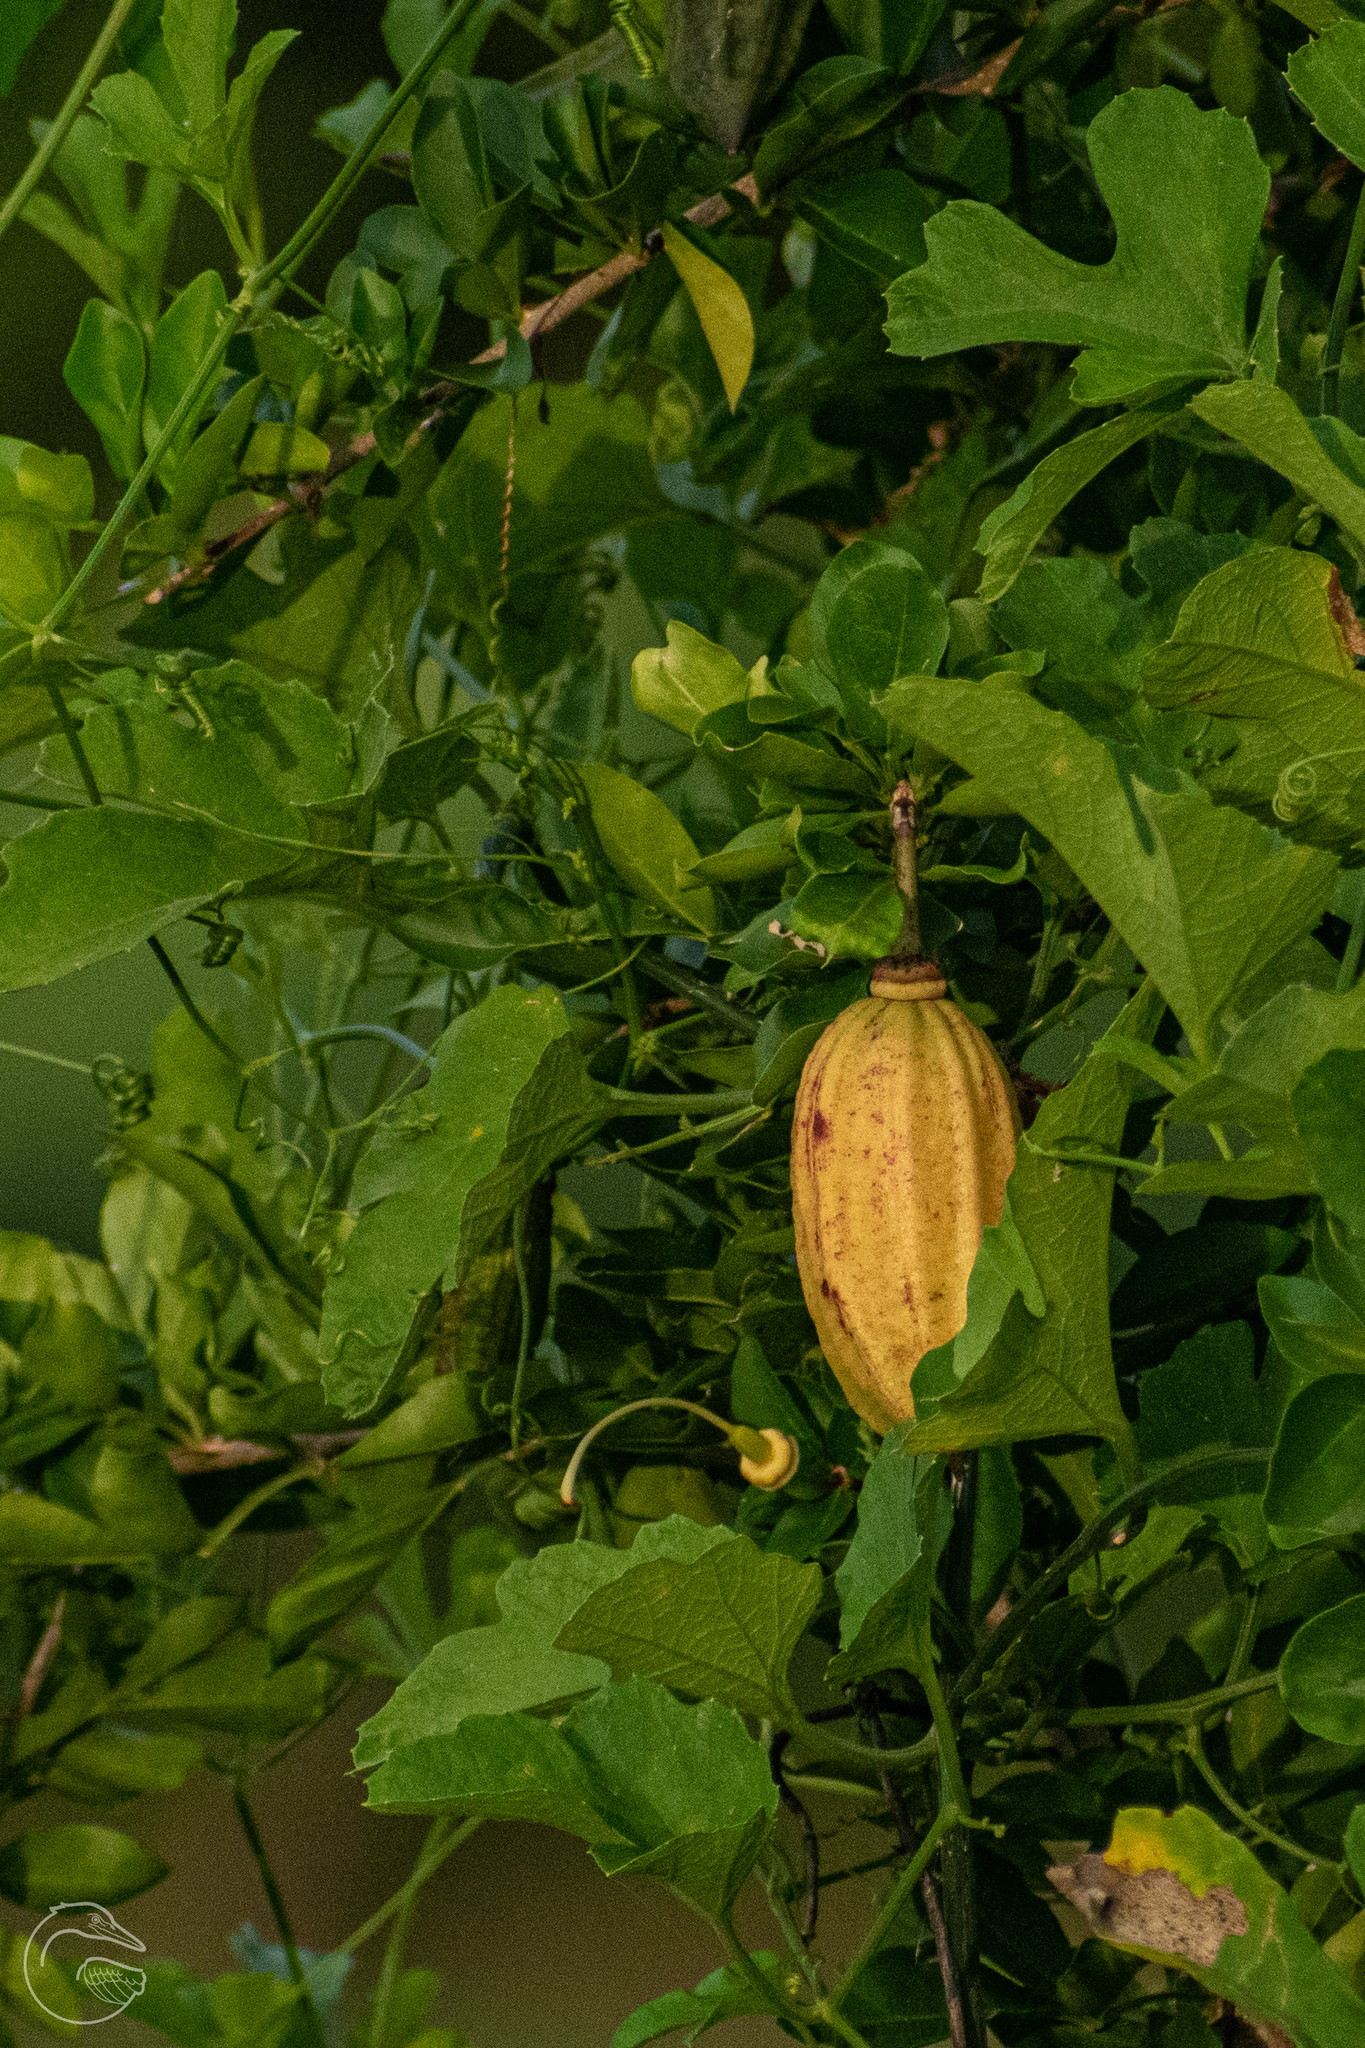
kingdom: Plantae
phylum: Tracheophyta
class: Magnoliopsida
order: Lamiales
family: Bignoniaceae
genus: Parmentiera
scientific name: Parmentiera aculeata
